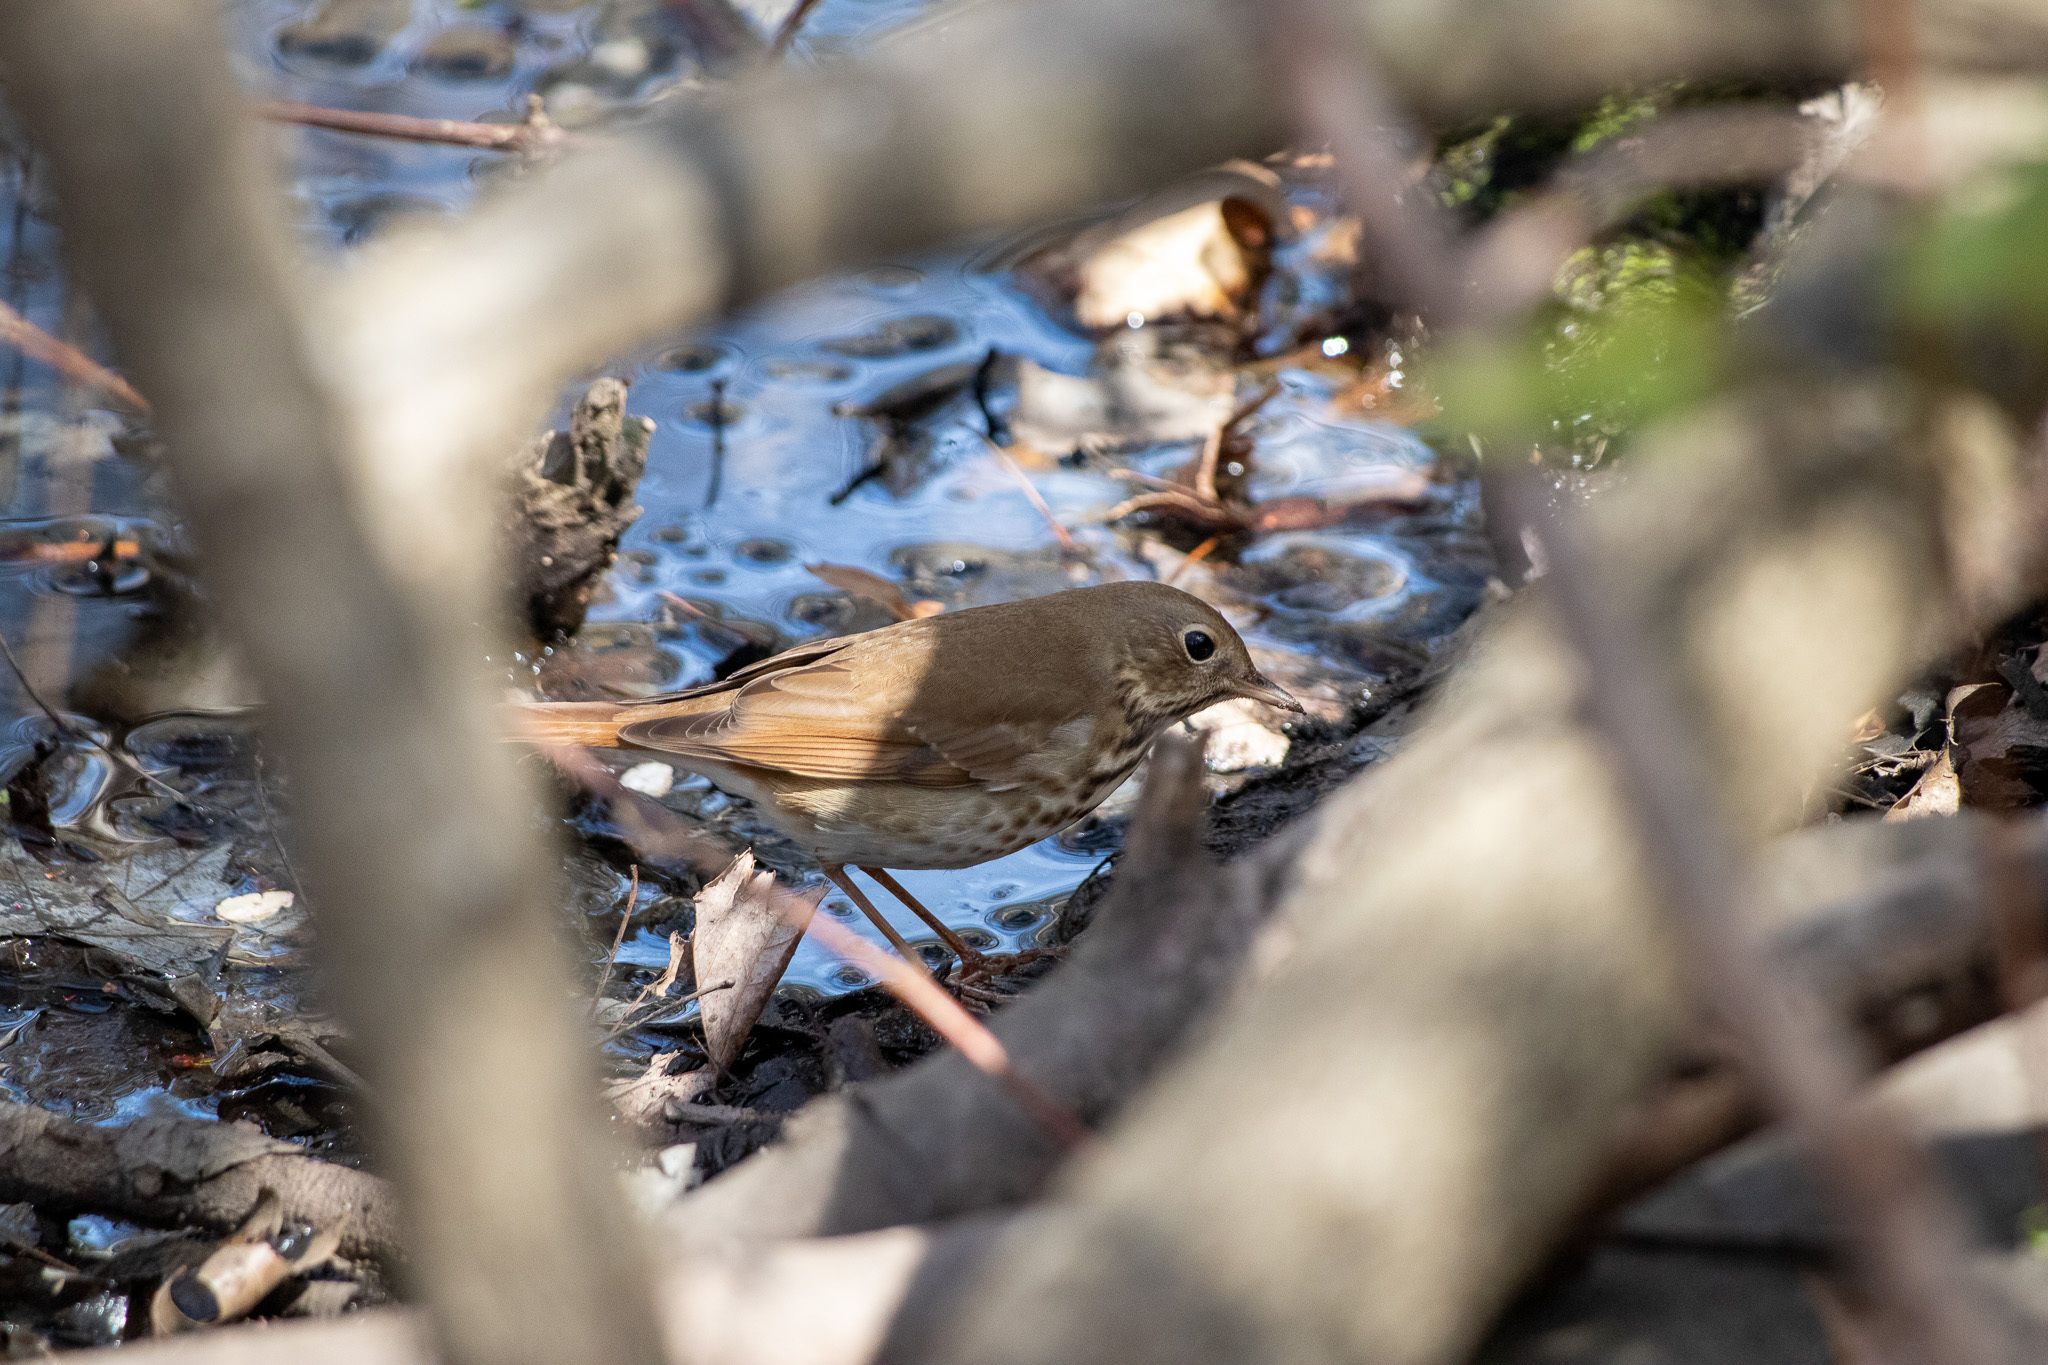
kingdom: Animalia
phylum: Chordata
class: Aves
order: Passeriformes
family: Turdidae
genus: Catharus
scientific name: Catharus guttatus
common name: Hermit thrush
